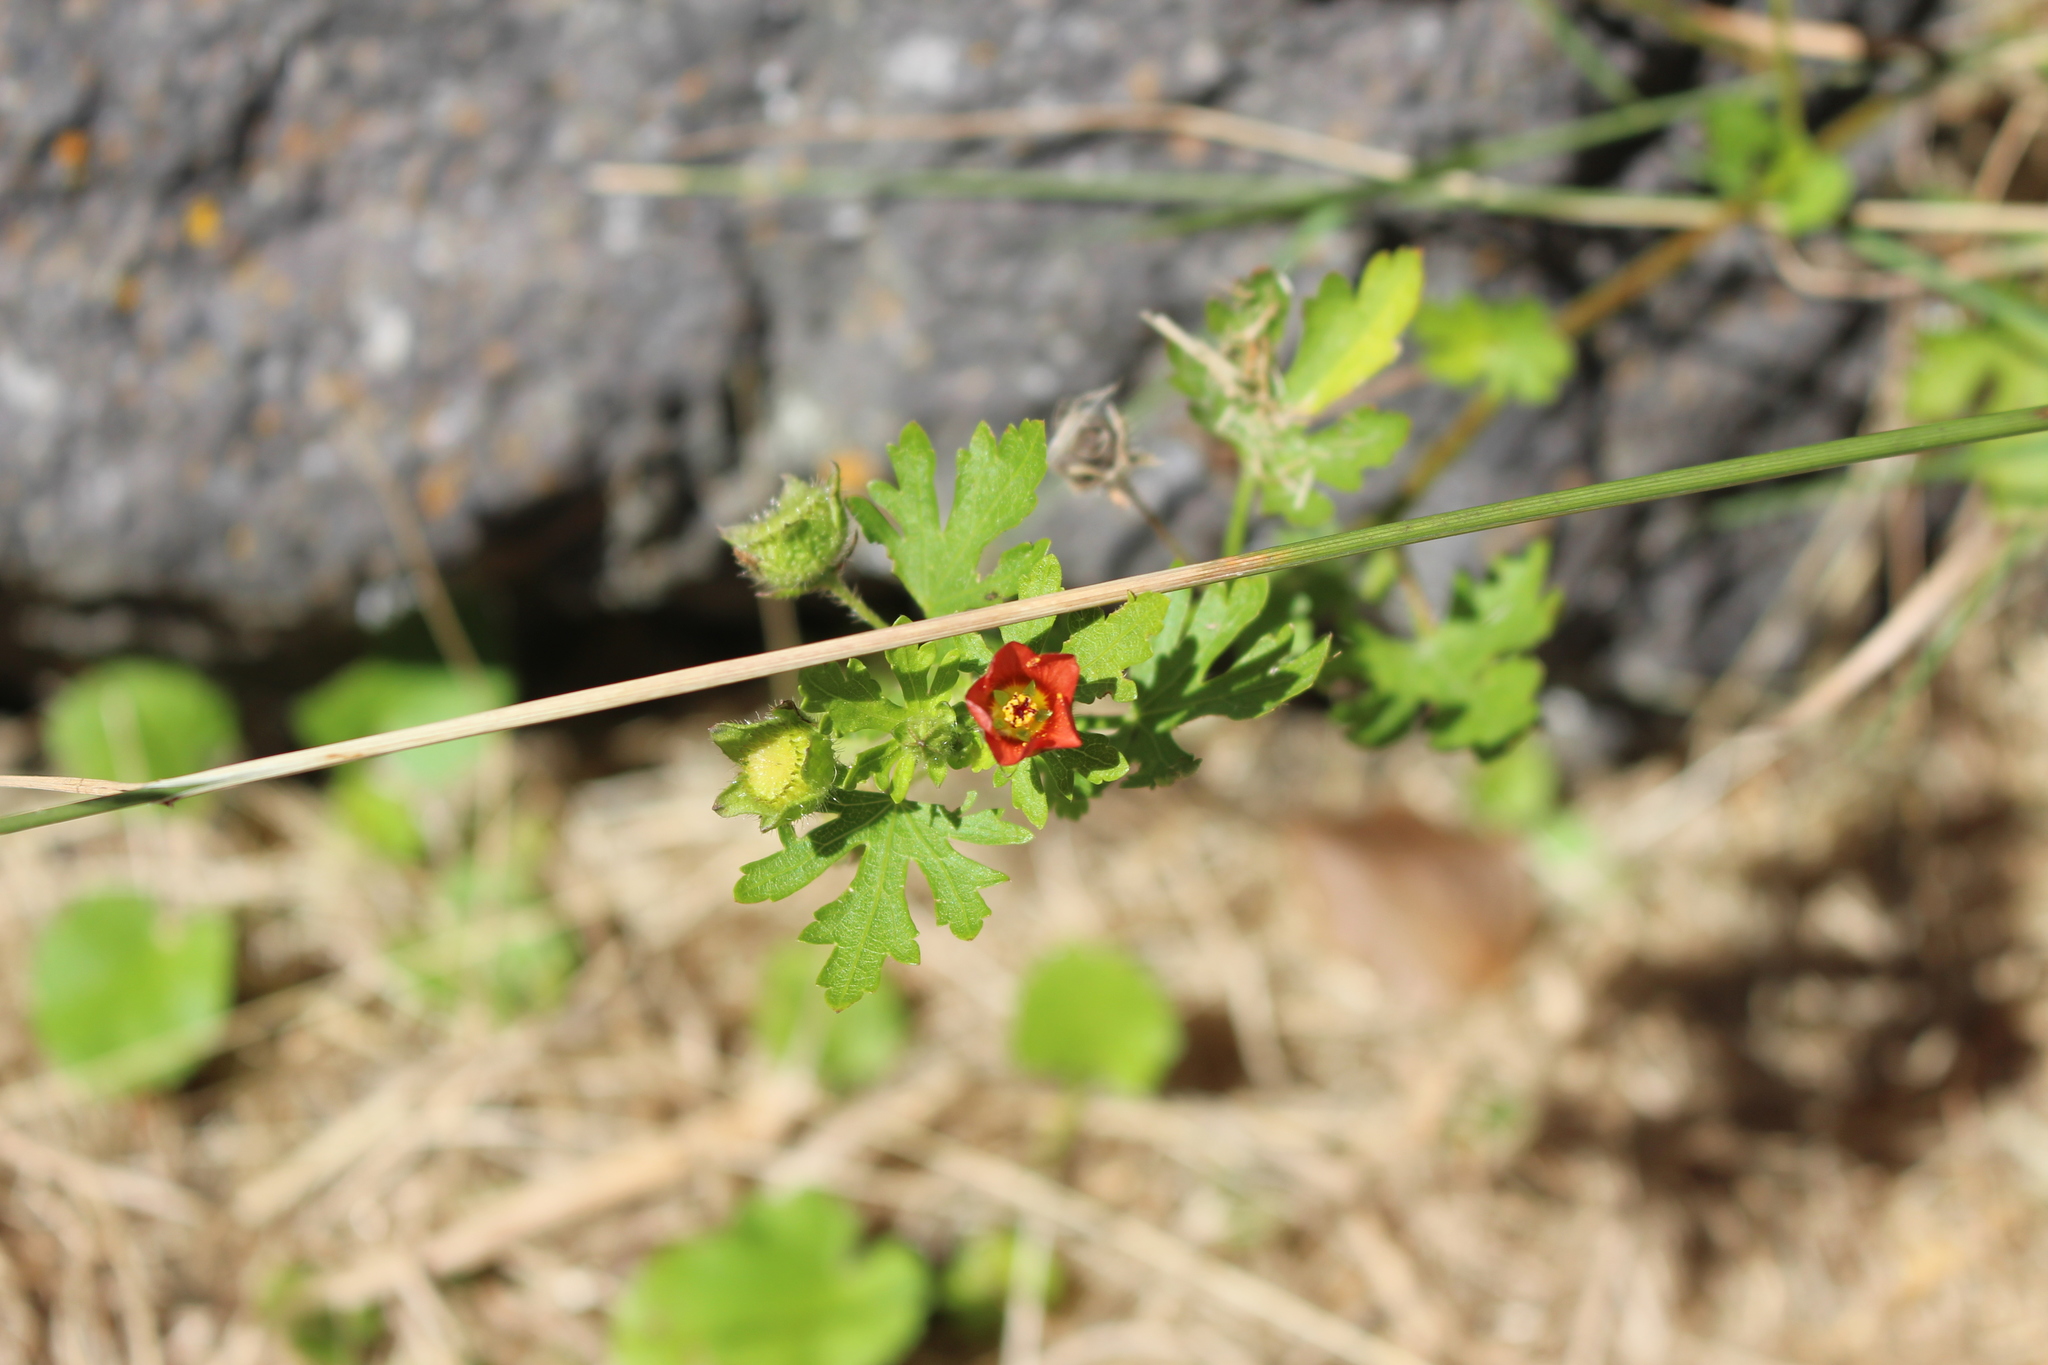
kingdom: Plantae
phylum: Tracheophyta
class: Magnoliopsida
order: Malvales
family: Malvaceae
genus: Modiola
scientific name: Modiola caroliniana
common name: Carolina bristlemallow
